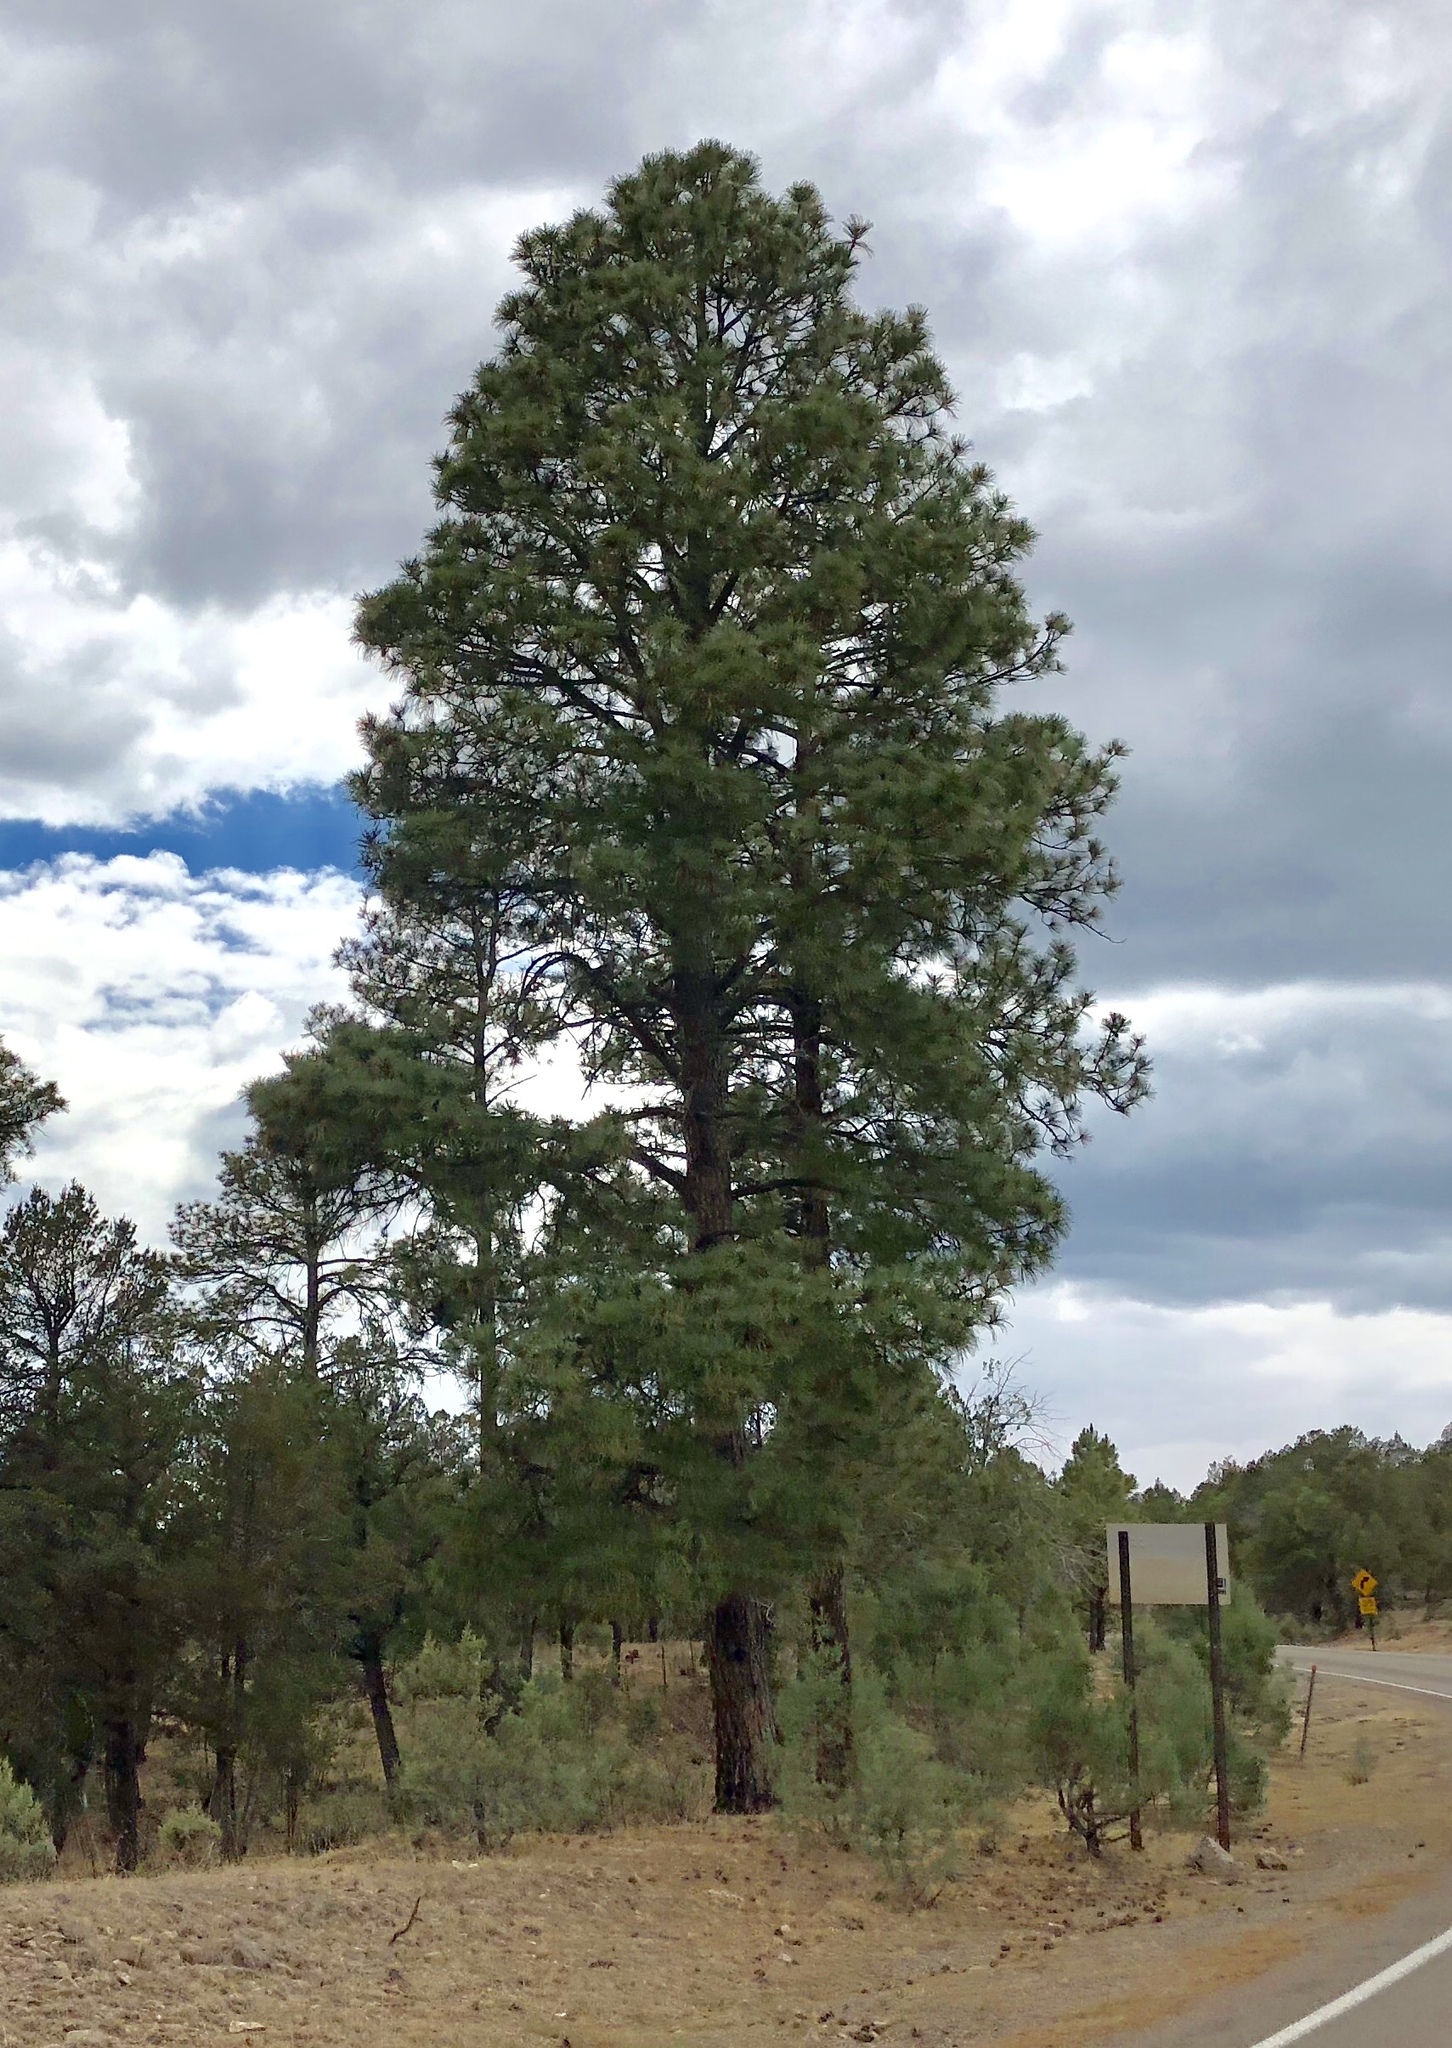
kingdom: Plantae
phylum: Tracheophyta
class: Pinopsida
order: Pinales
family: Pinaceae
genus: Pinus
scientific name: Pinus ponderosa
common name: Western yellow-pine
